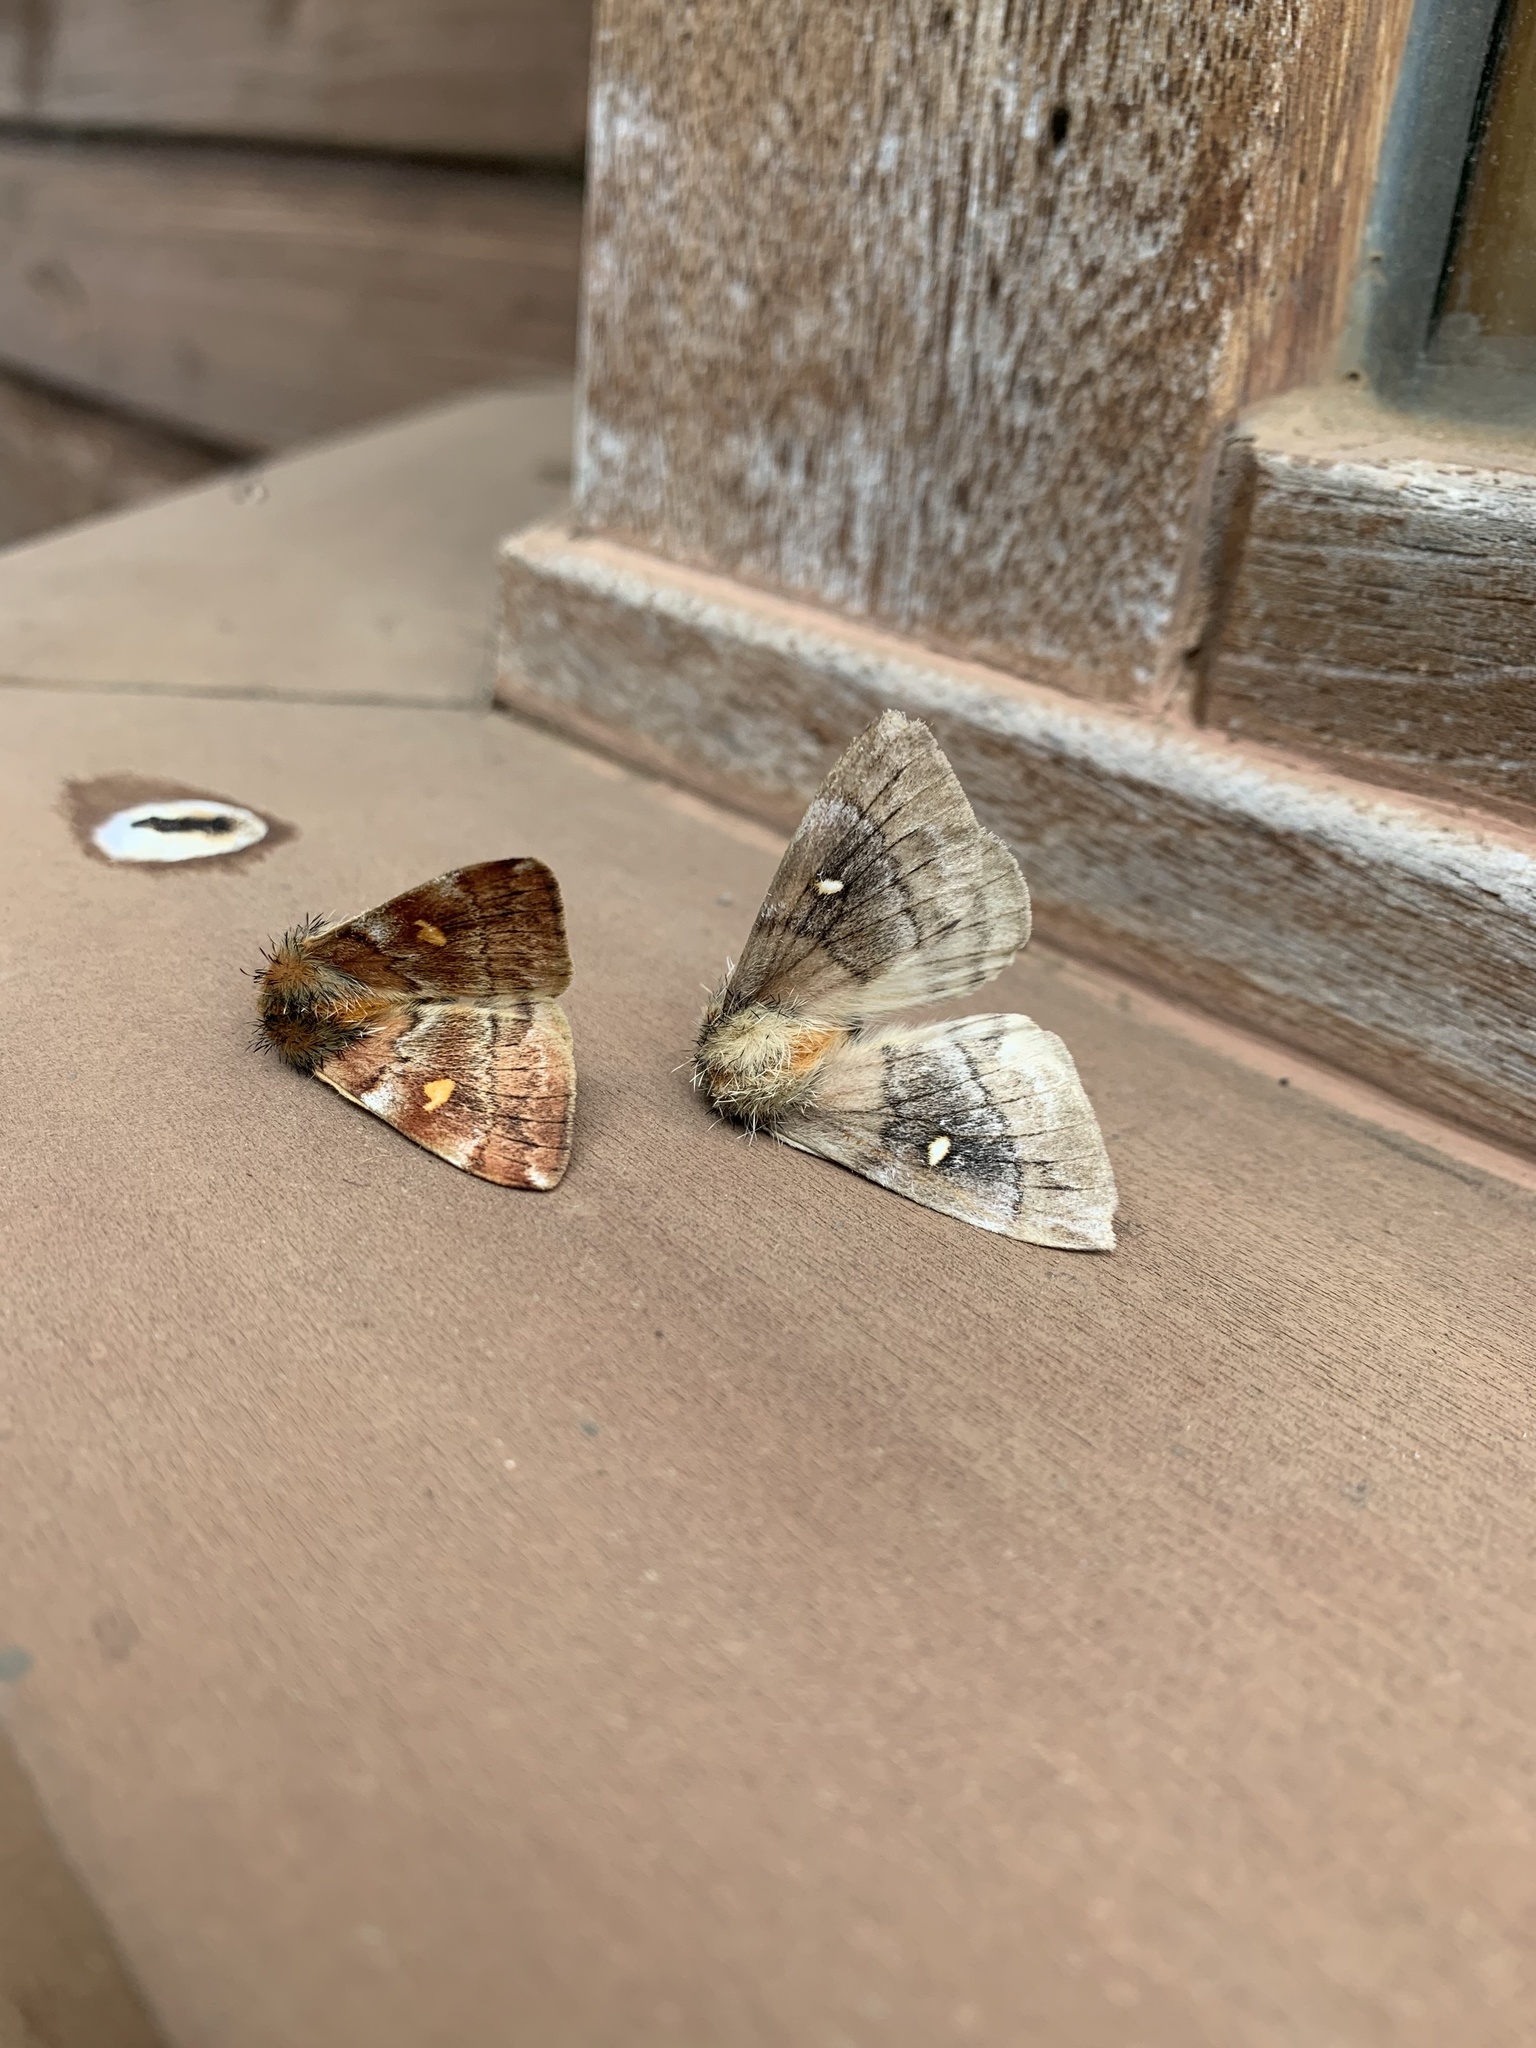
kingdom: Animalia
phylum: Arthropoda
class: Insecta
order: Lepidoptera
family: Saturniidae
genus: Ormiscodes
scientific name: Ormiscodes amphinome
